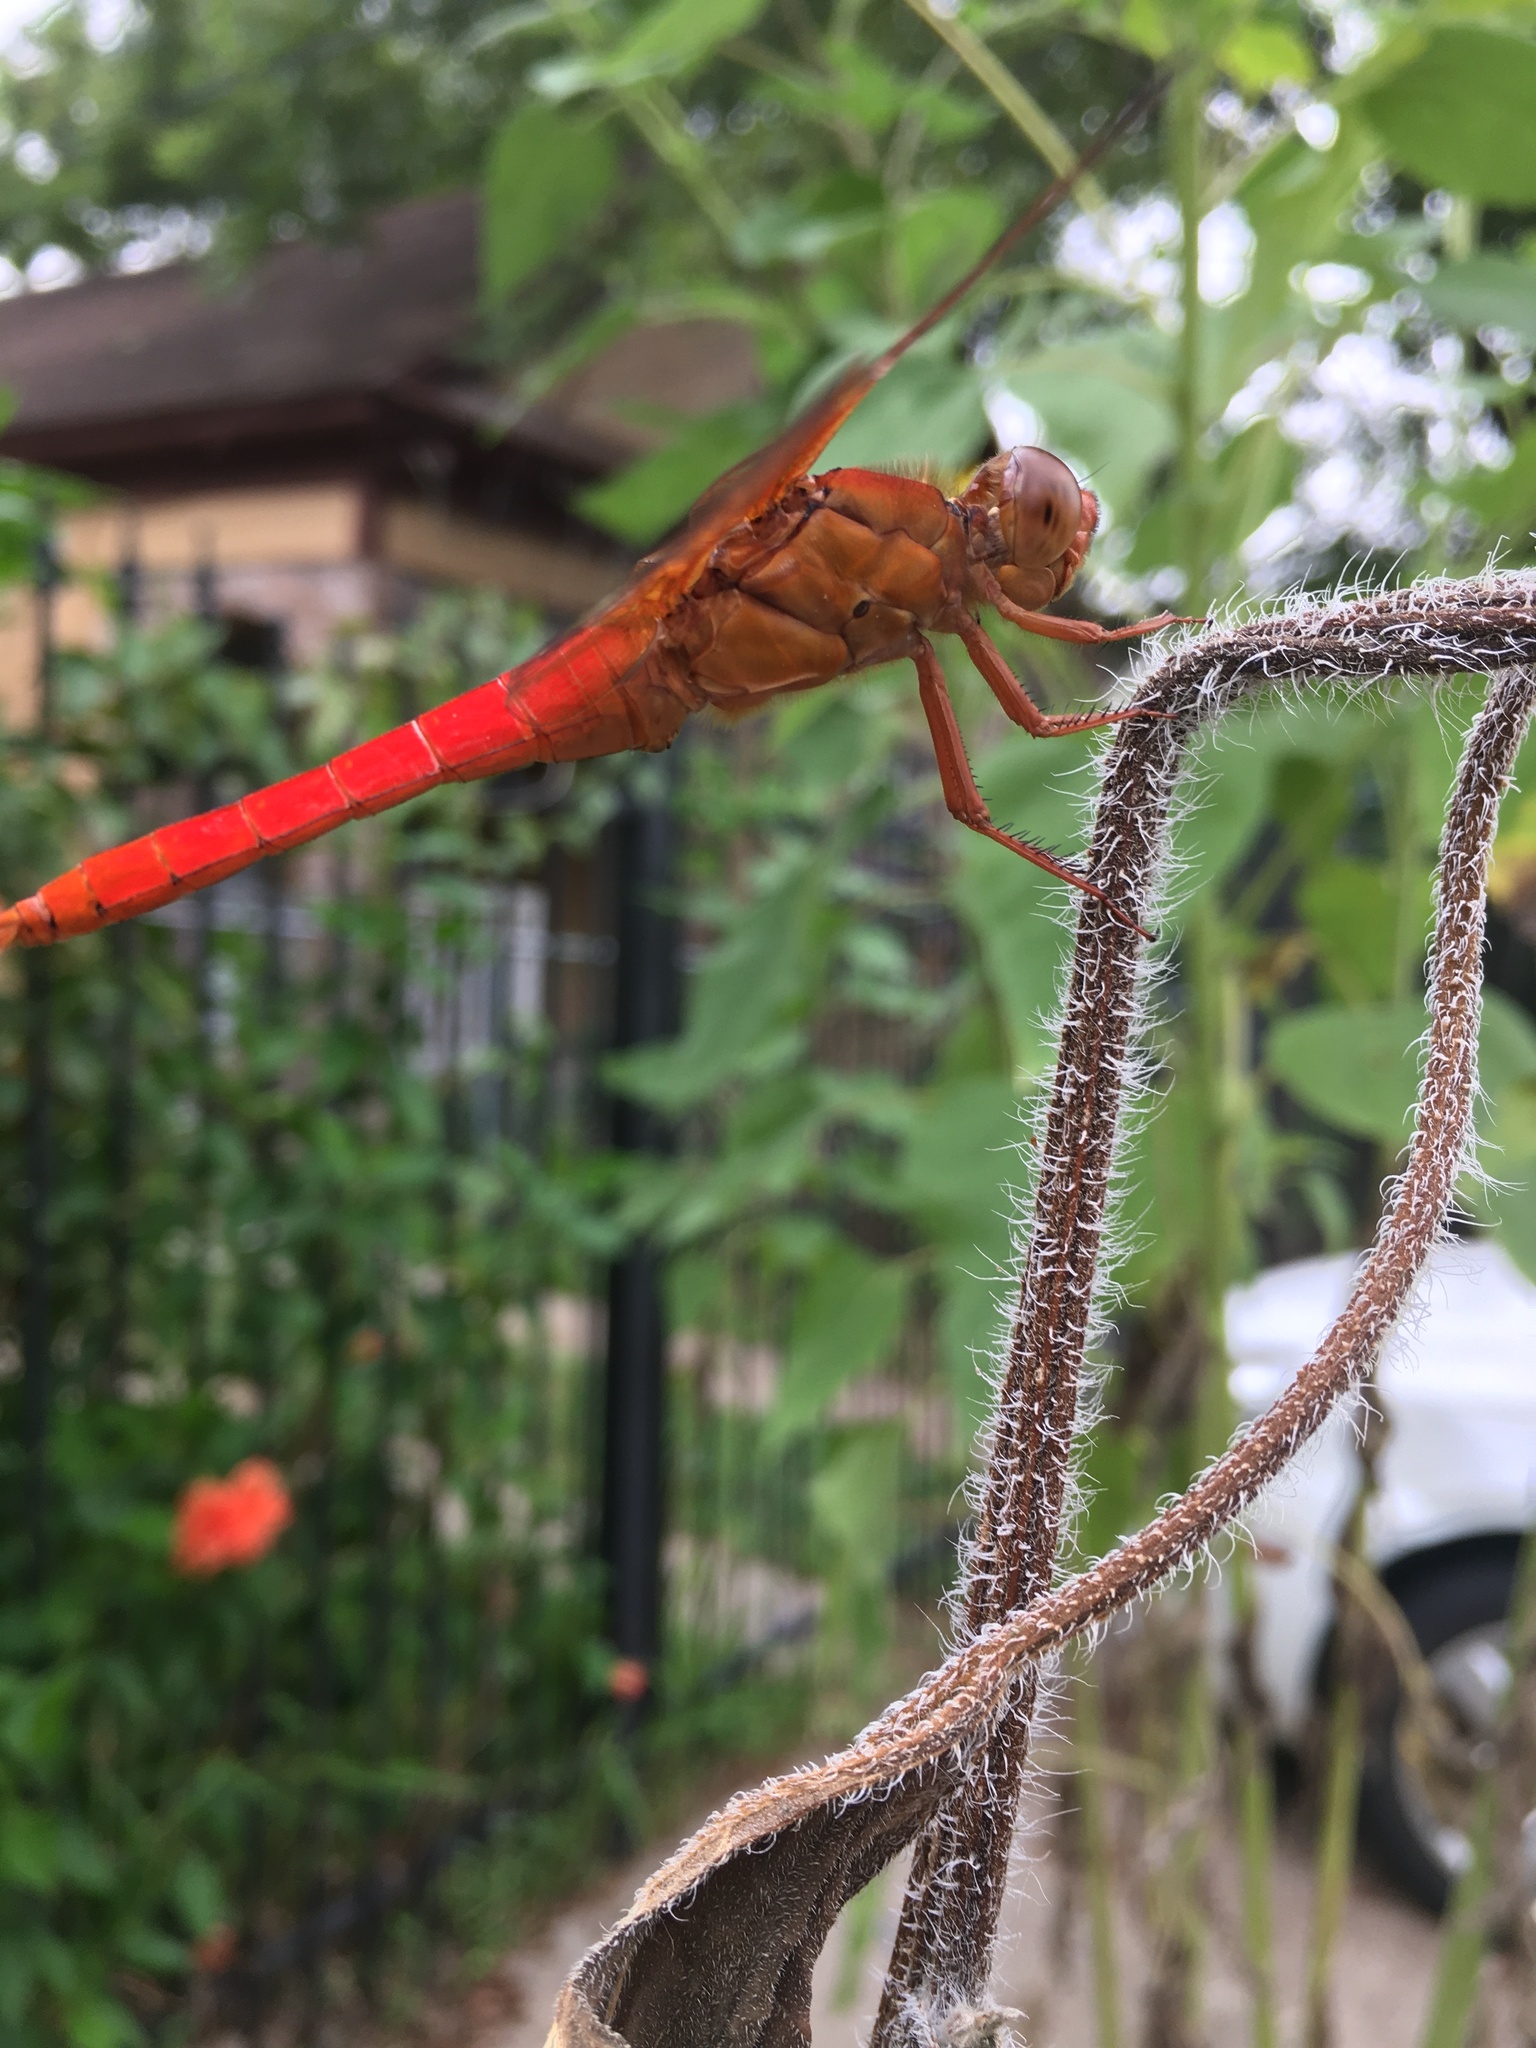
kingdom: Animalia
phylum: Arthropoda
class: Insecta
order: Odonata
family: Libellulidae
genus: Libellula
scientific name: Libellula croceipennis
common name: Neon skimmer
